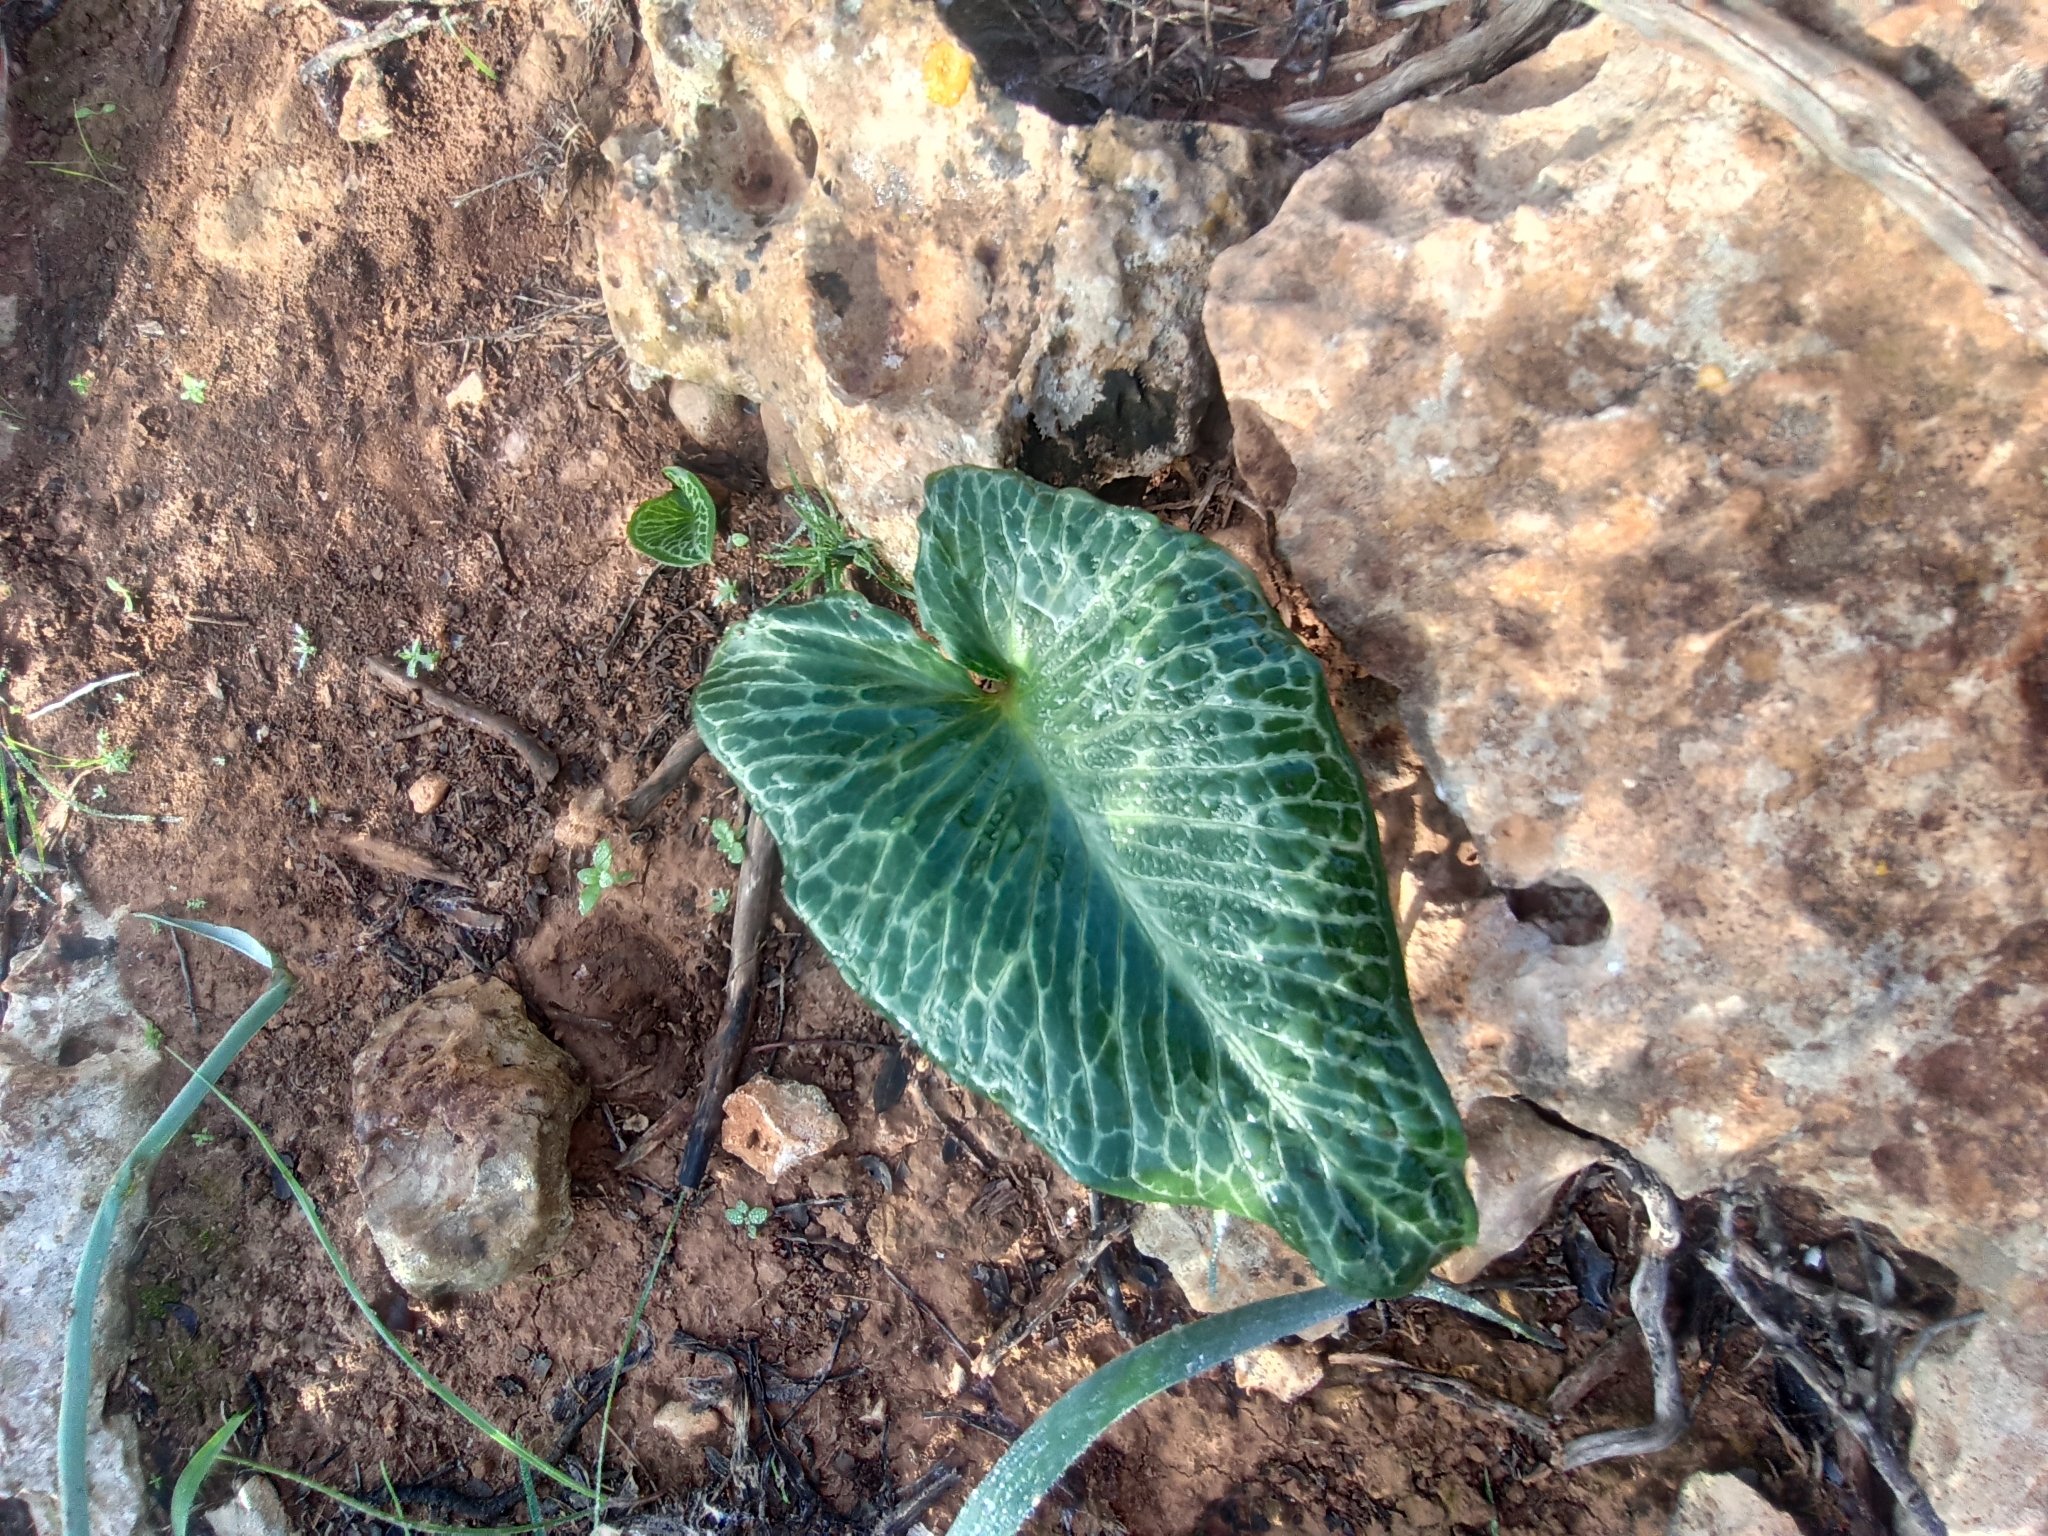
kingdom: Plantae
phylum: Tracheophyta
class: Liliopsida
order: Alismatales
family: Araceae
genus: Arum
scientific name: Arum pictum
